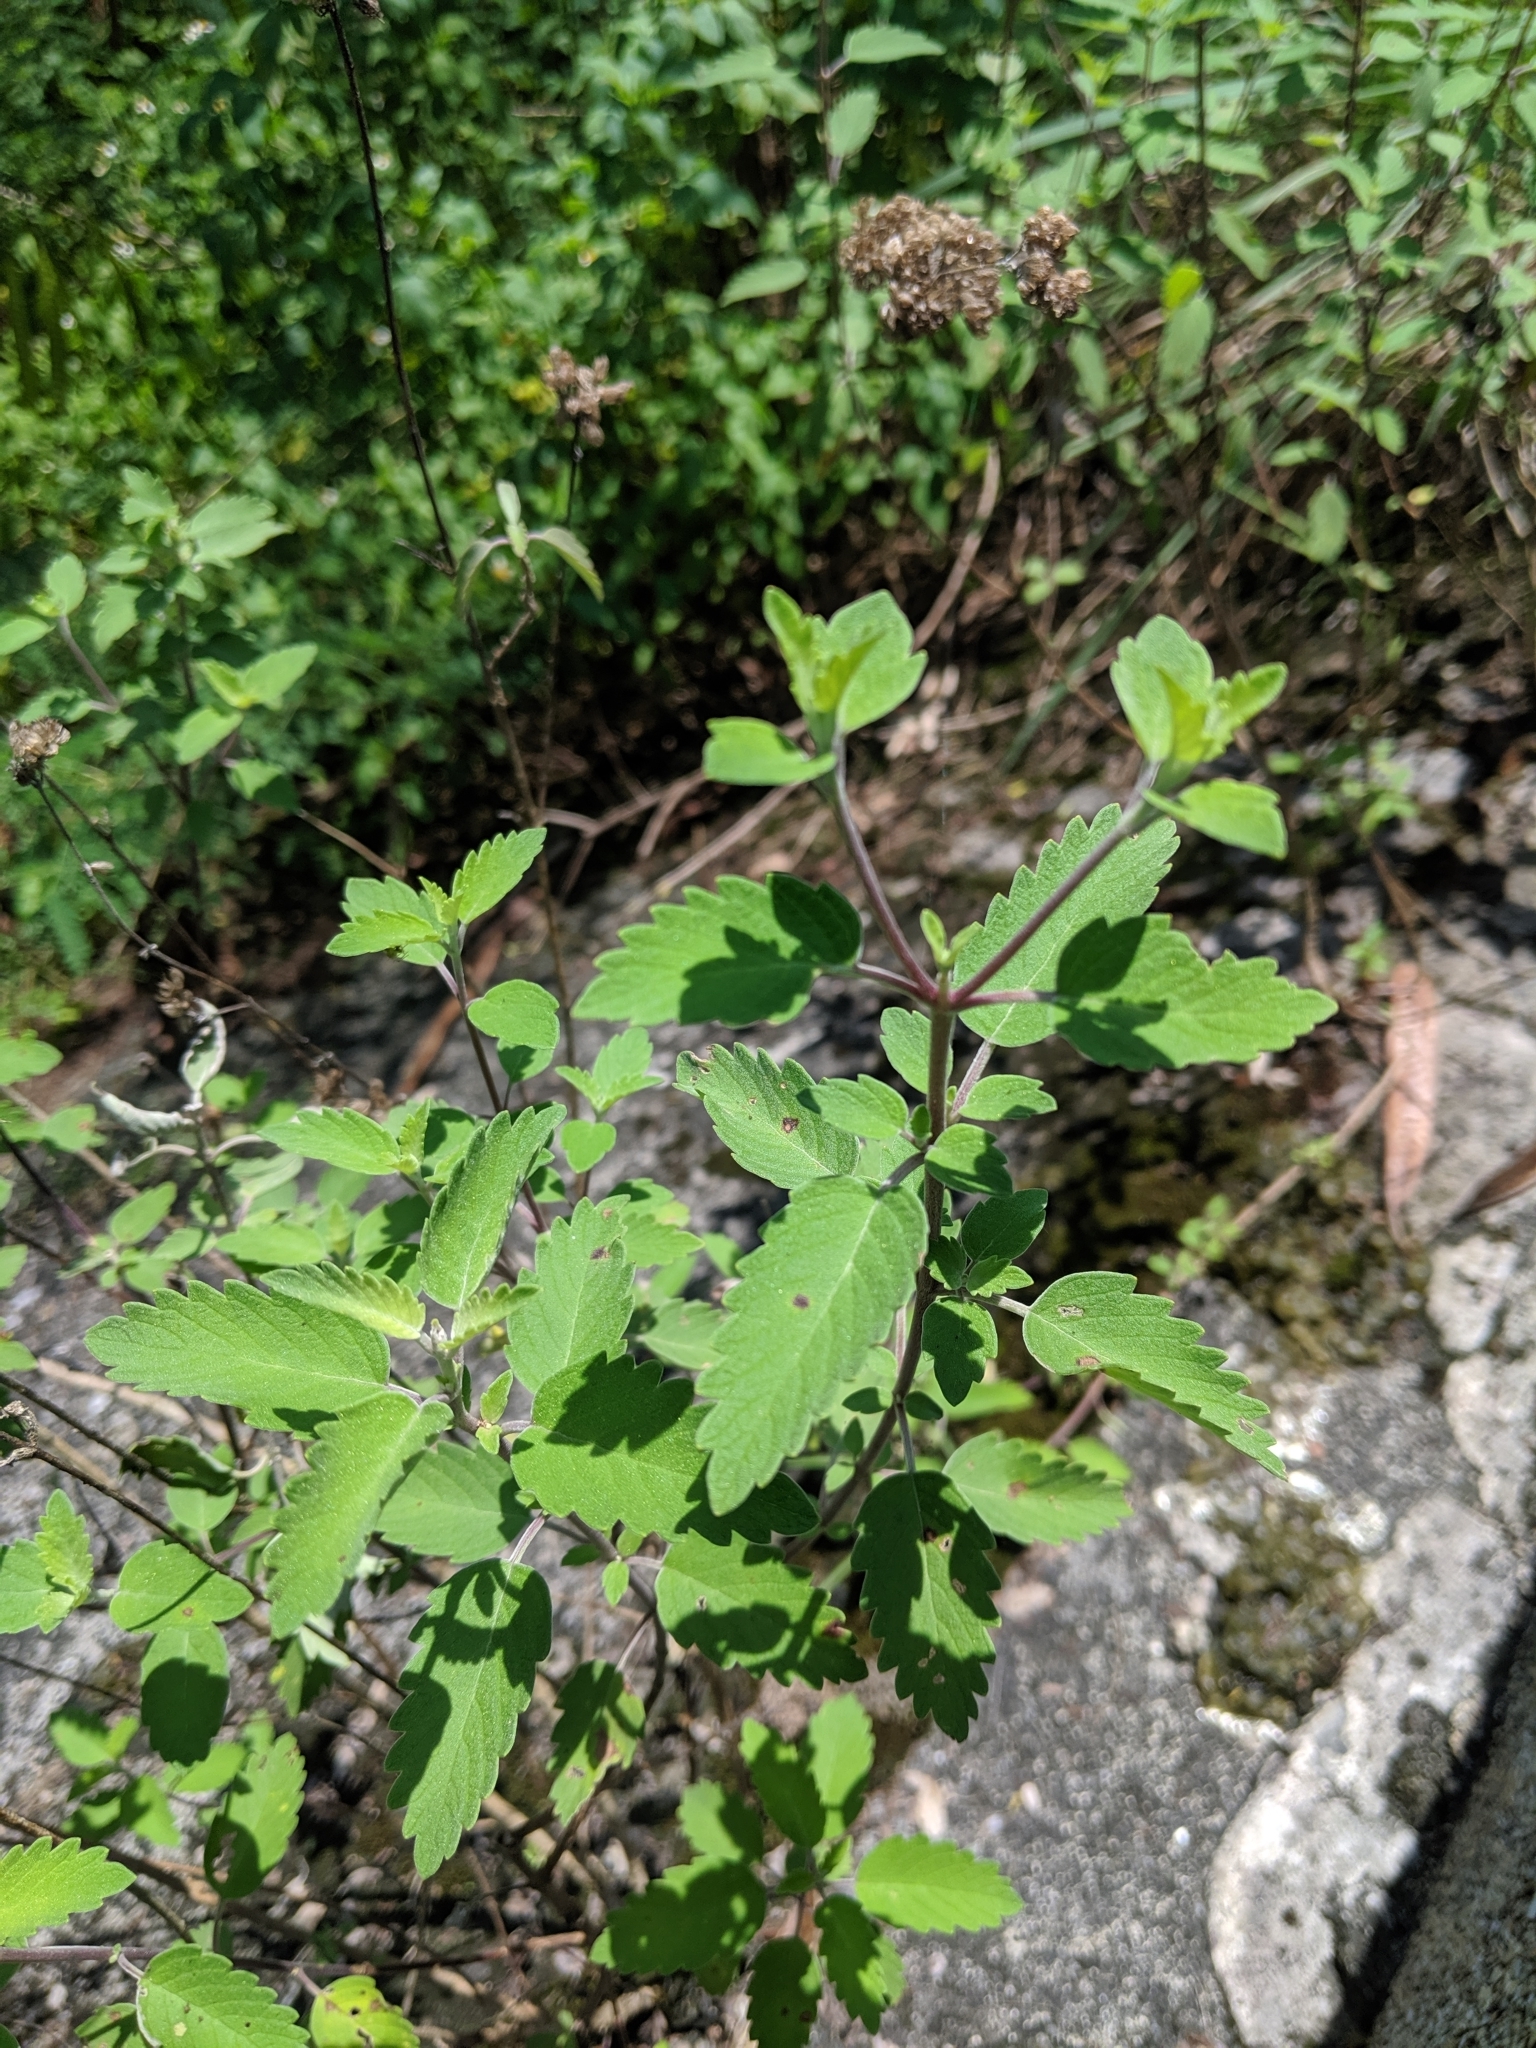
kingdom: Plantae
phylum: Tracheophyta
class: Magnoliopsida
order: Lamiales
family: Lamiaceae
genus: Caryopteris
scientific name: Caryopteris incana
